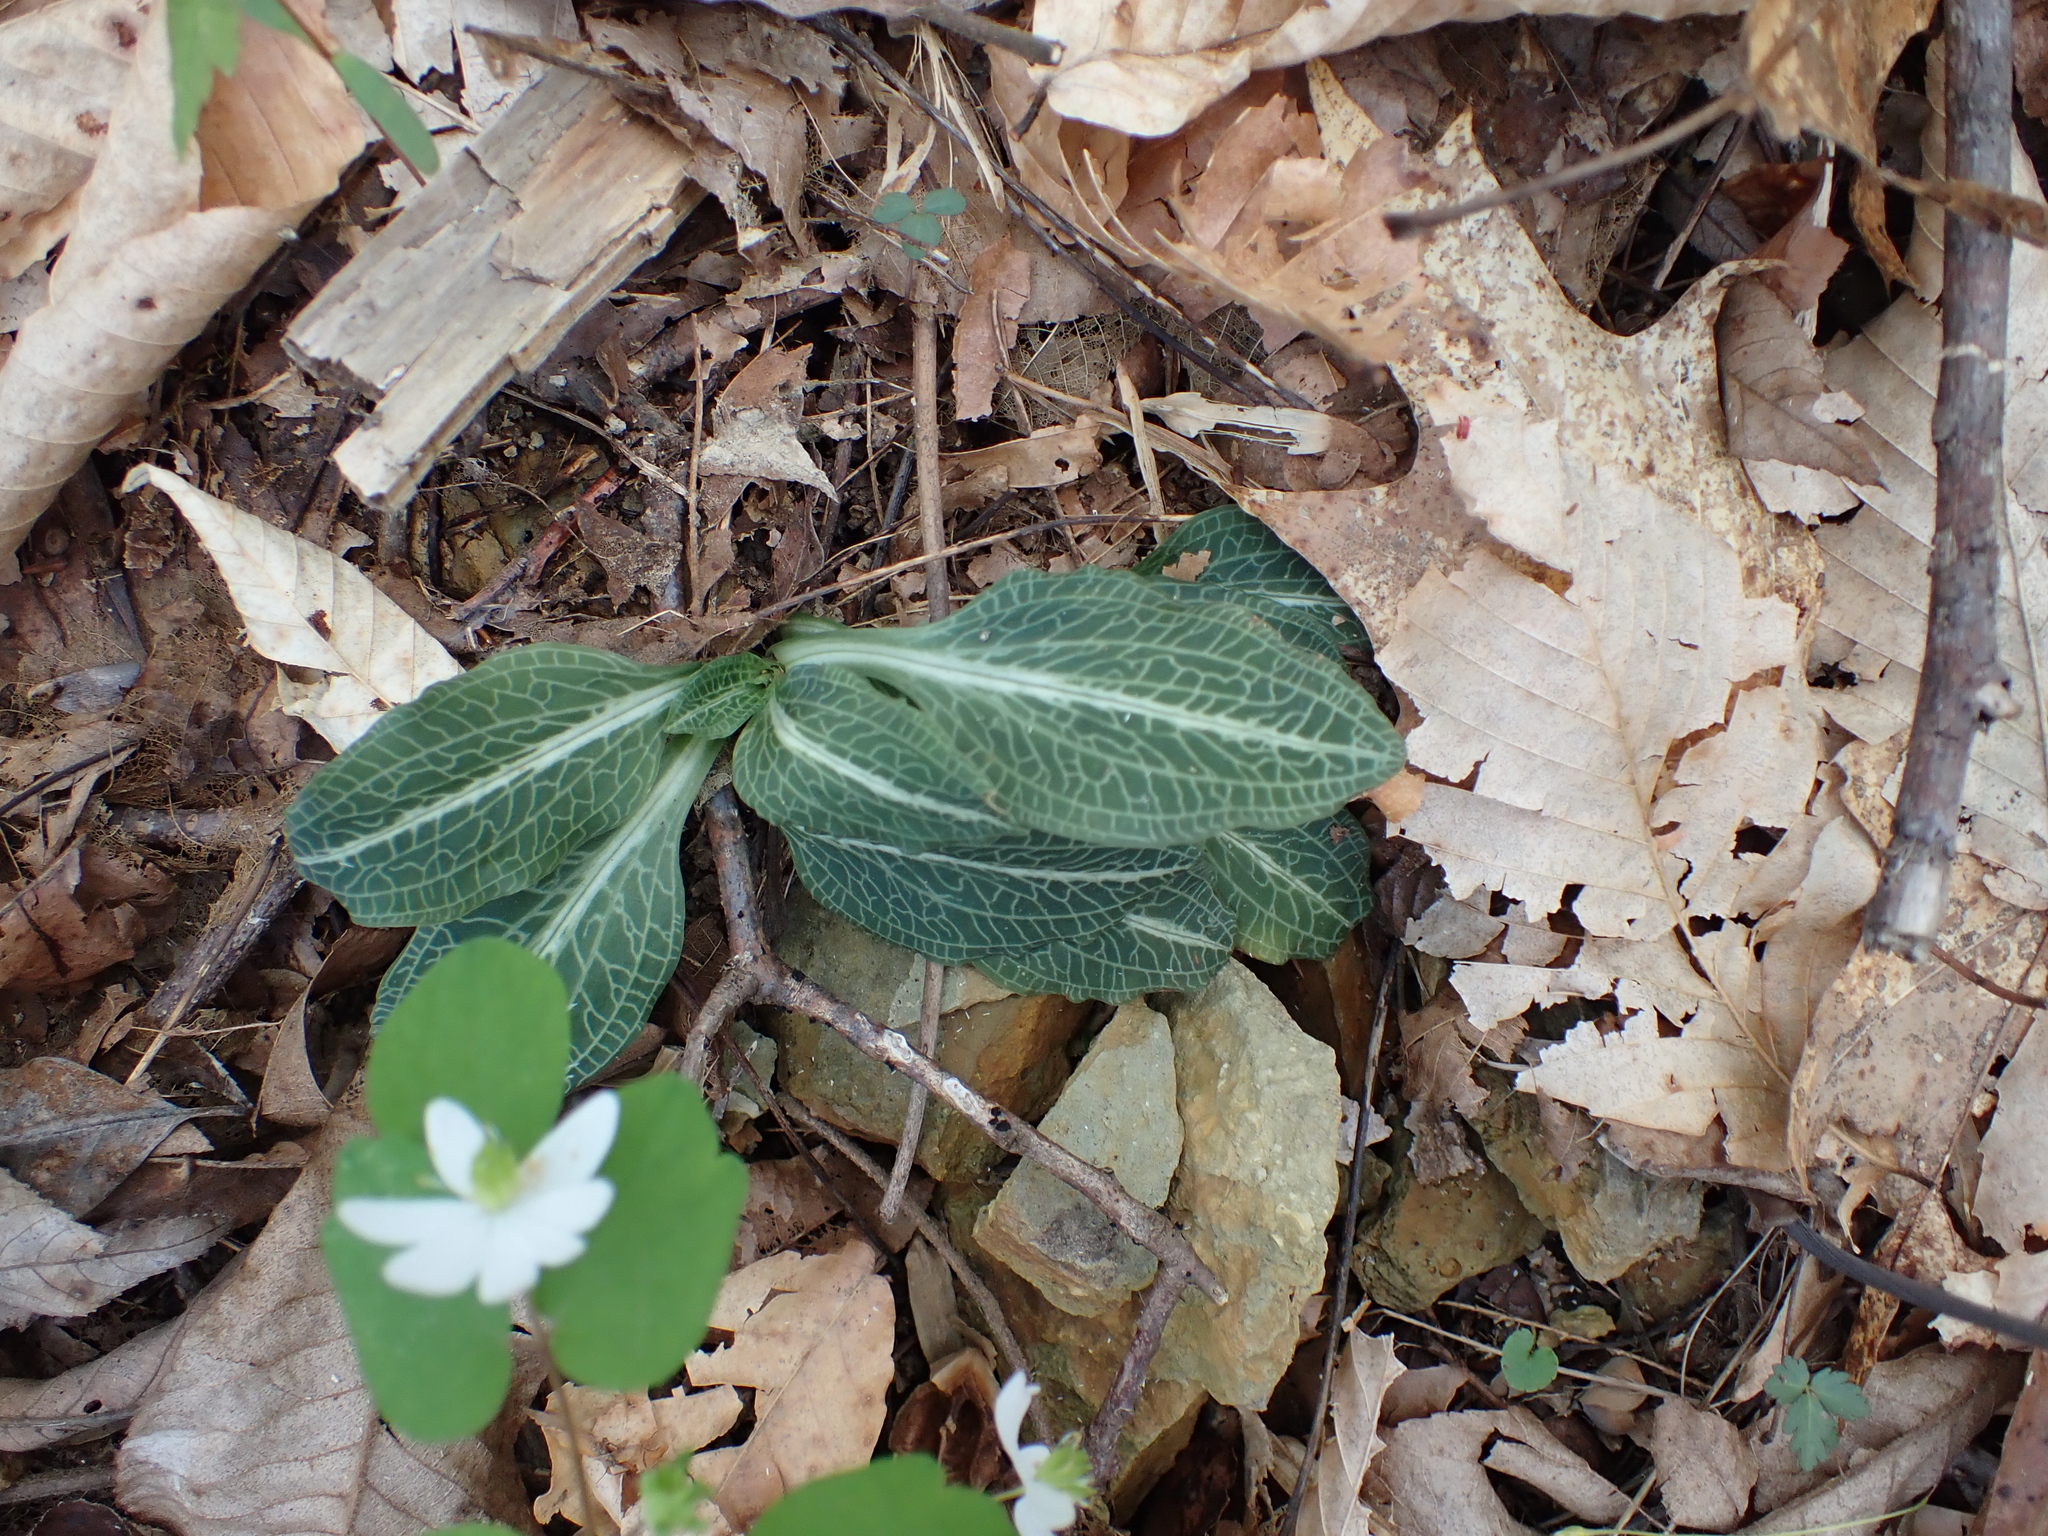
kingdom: Plantae
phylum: Tracheophyta
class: Liliopsida
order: Asparagales
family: Orchidaceae
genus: Goodyera
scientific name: Goodyera pubescens
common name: Downy rattlesnake-plantain
